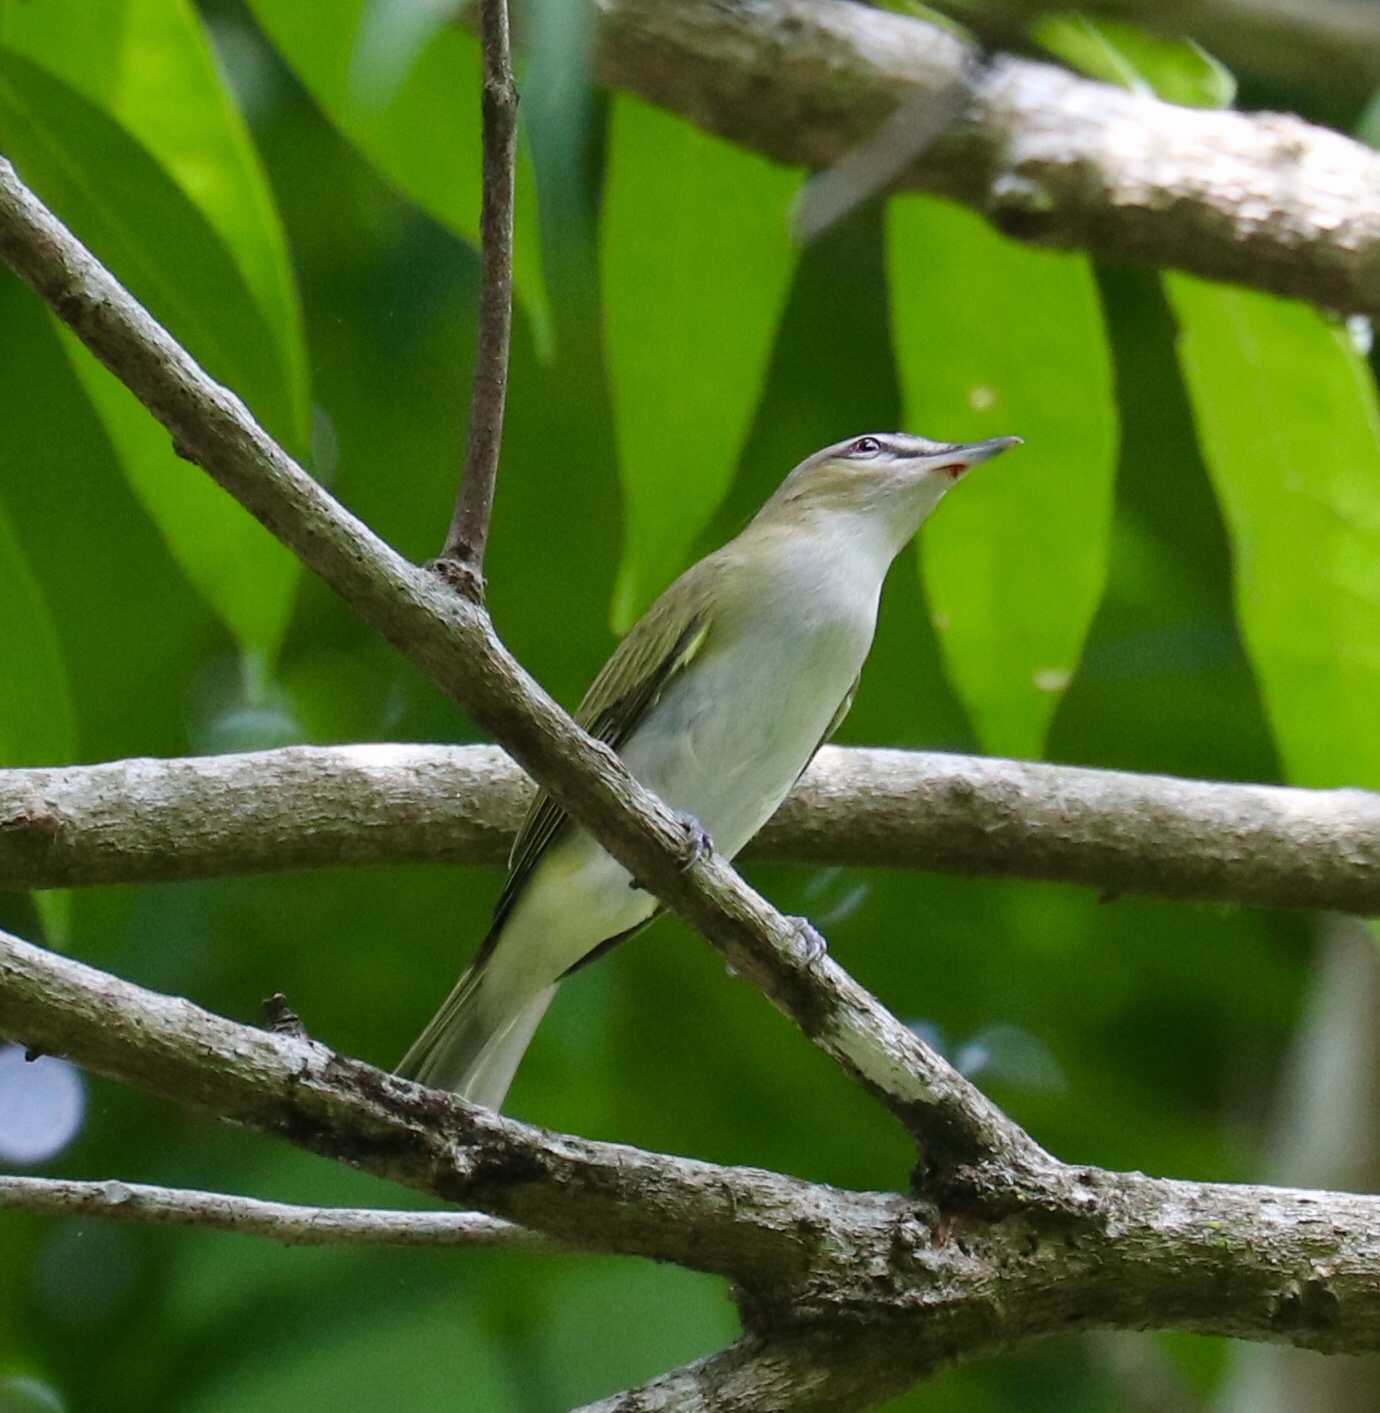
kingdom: Animalia
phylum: Chordata
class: Aves
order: Passeriformes
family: Vireonidae
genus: Vireo
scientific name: Vireo olivaceus
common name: Red-eyed vireo
